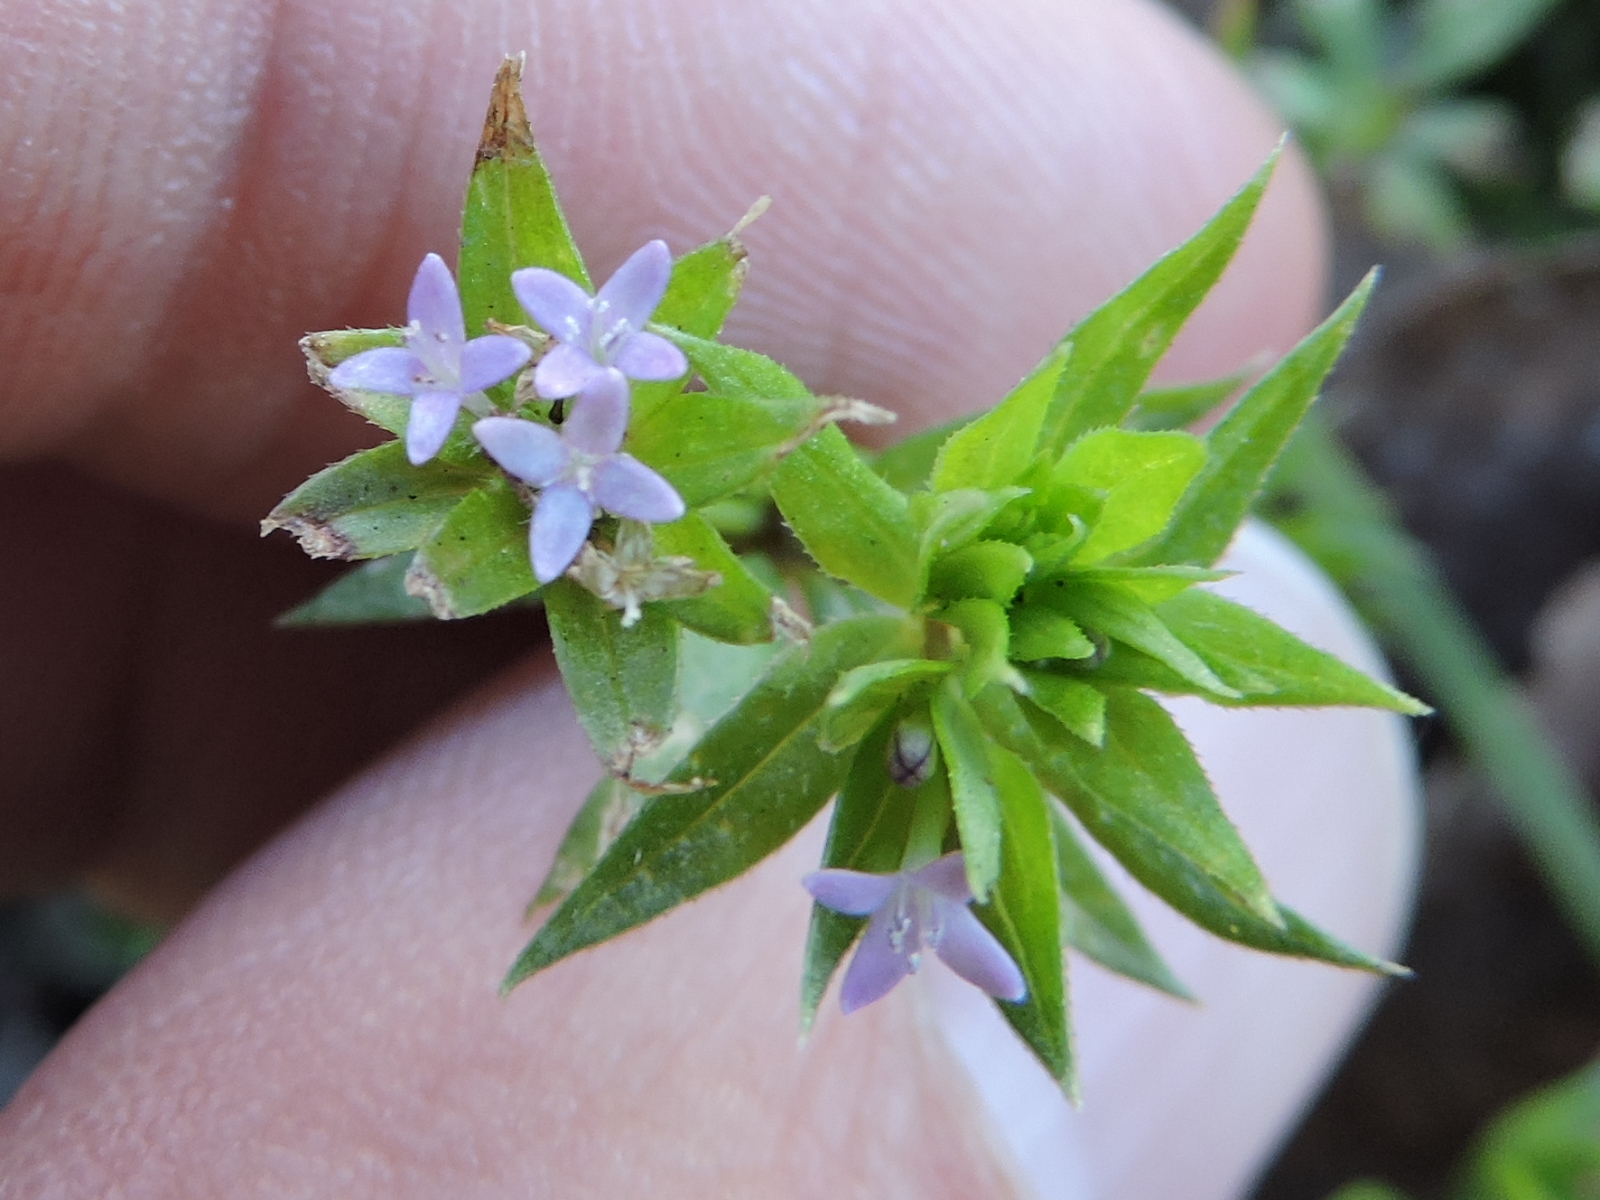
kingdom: Plantae
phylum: Tracheophyta
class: Magnoliopsida
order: Gentianales
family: Rubiaceae
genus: Sherardia
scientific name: Sherardia arvensis
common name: Field madder
